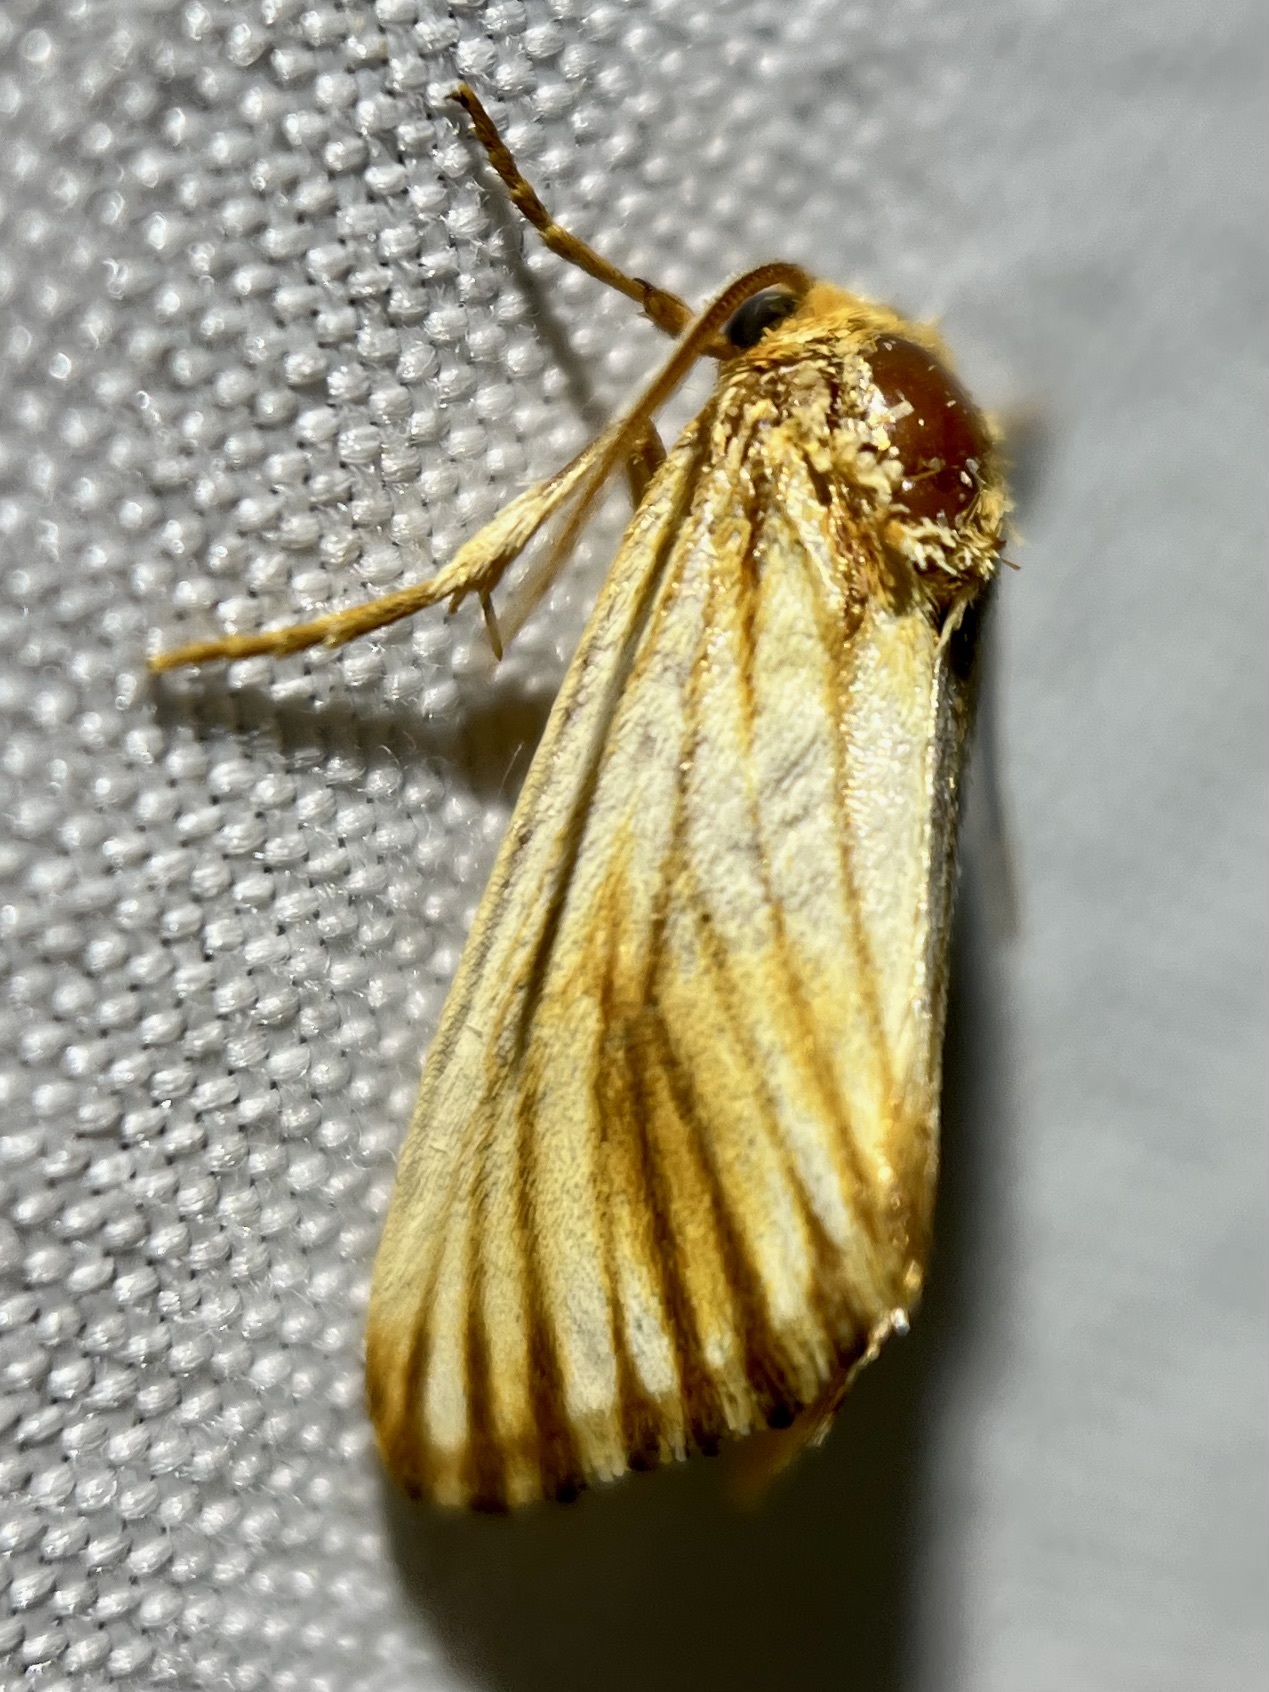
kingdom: Animalia
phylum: Arthropoda
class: Insecta
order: Lepidoptera
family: Noctuidae
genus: Antaplaga
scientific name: Antaplaga discistriga
